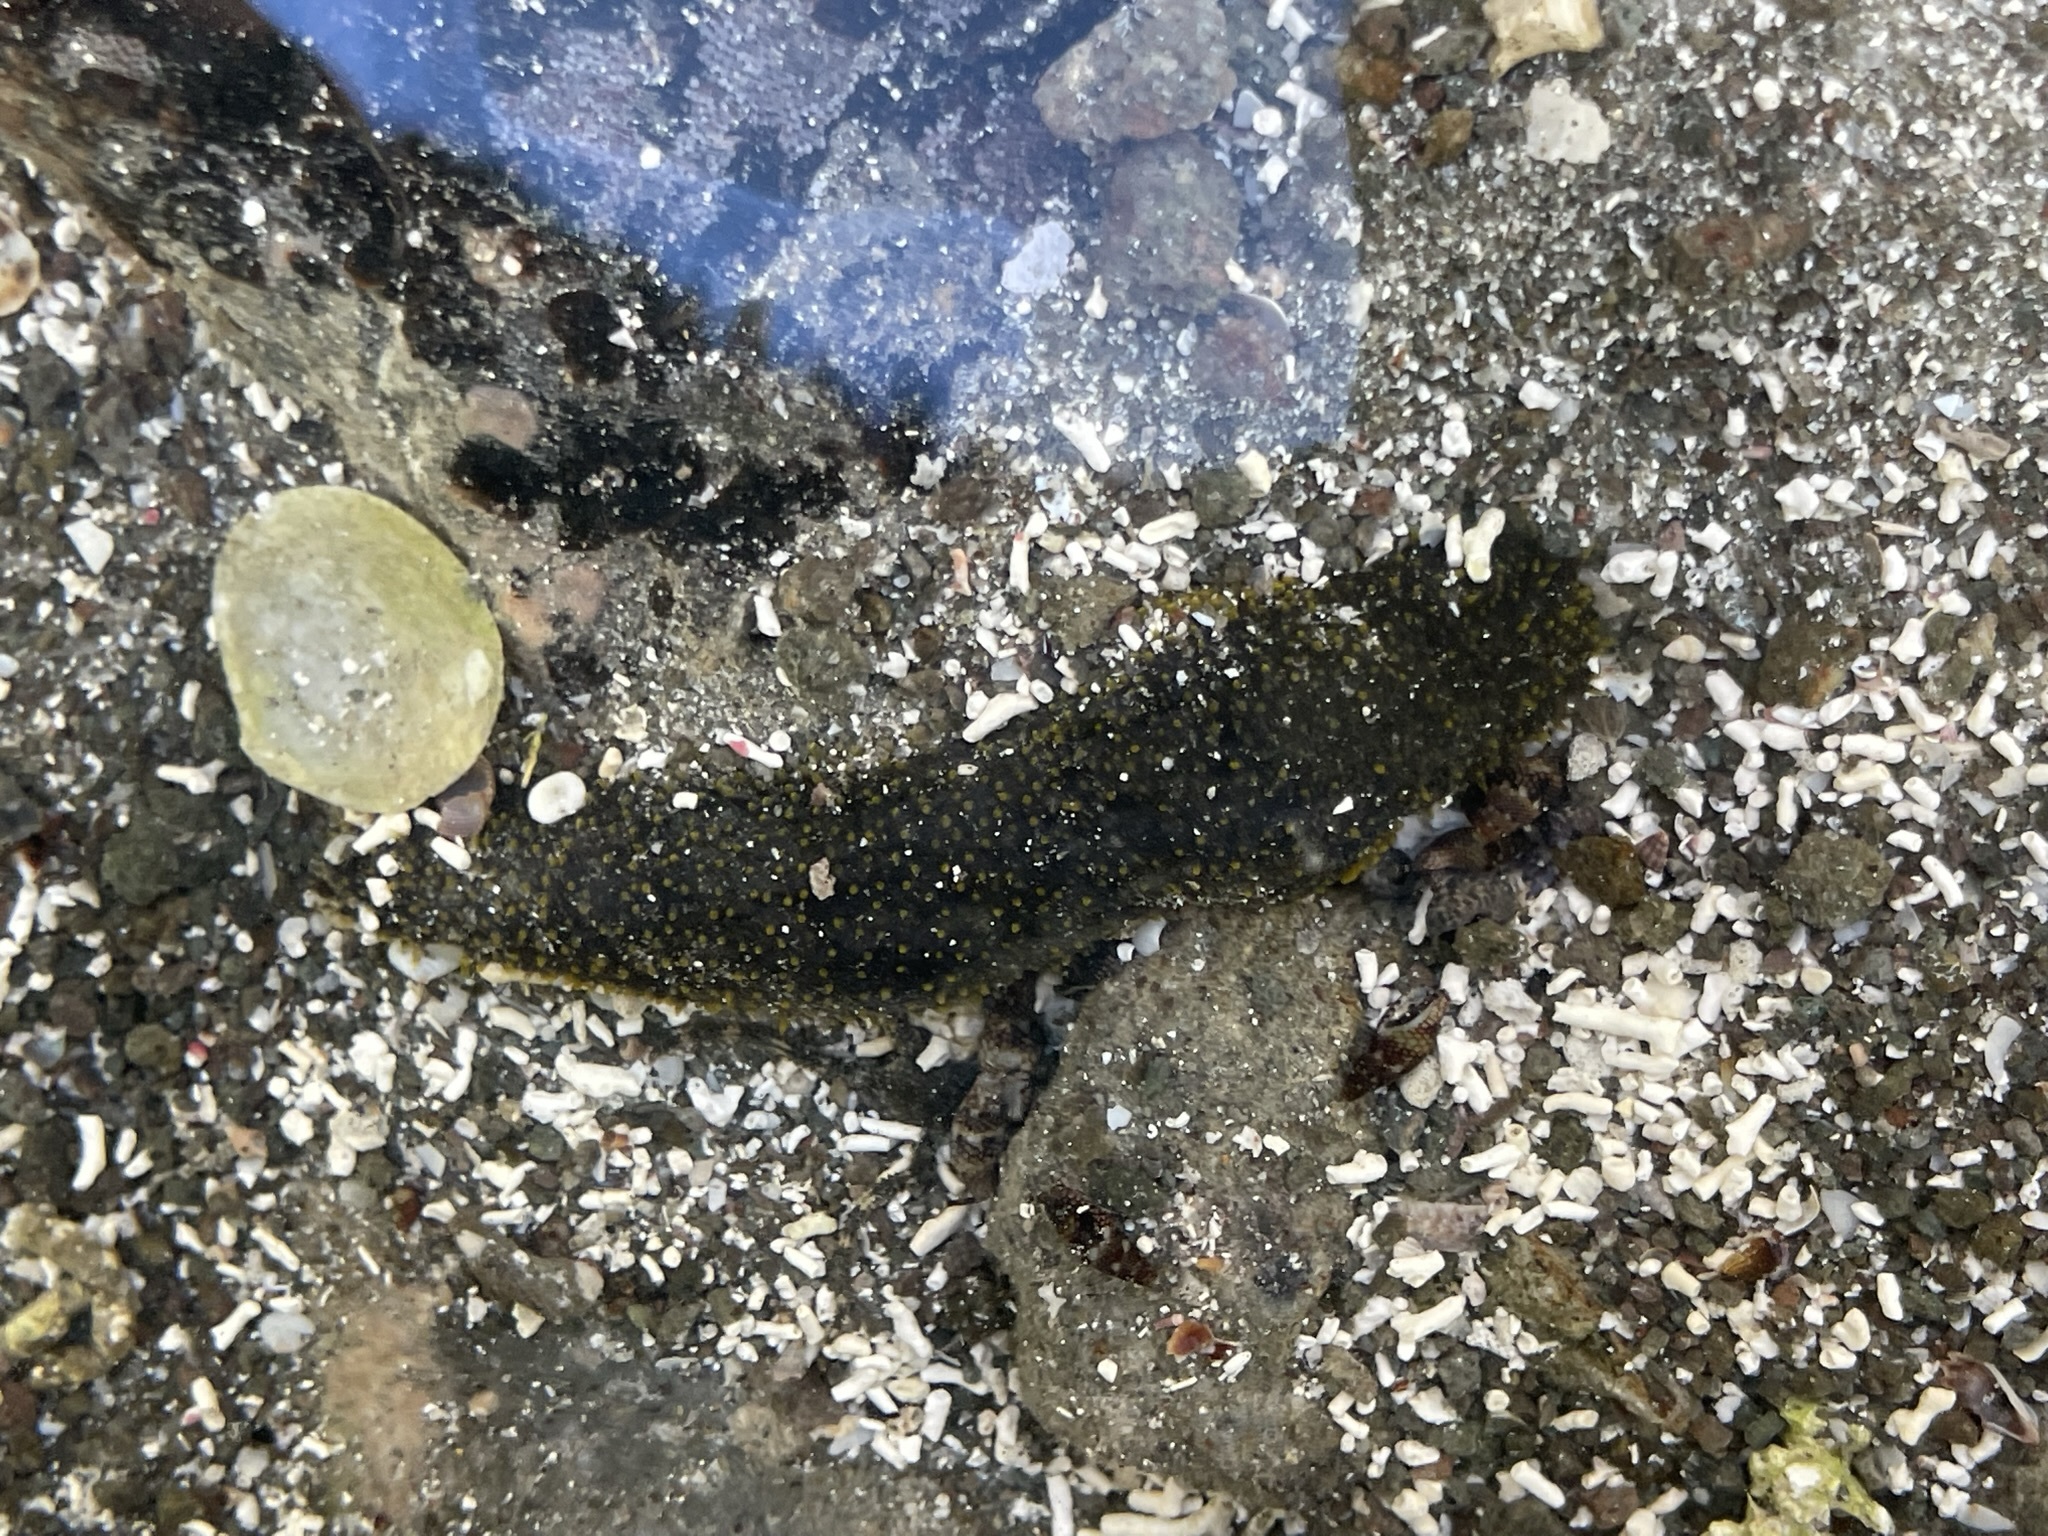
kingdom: Animalia
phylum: Echinodermata
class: Holothuroidea
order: Holothuriida
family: Holothuriidae
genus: Holothuria
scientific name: Holothuria lubrica
